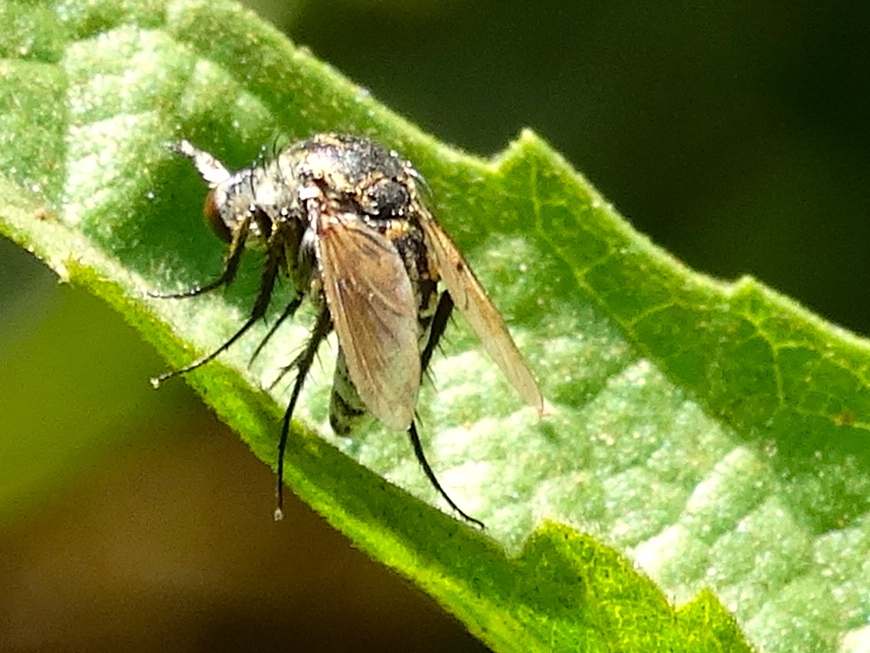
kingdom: Animalia
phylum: Arthropoda
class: Insecta
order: Diptera
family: Bombyliidae
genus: Toxophora
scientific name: Toxophora virgata
